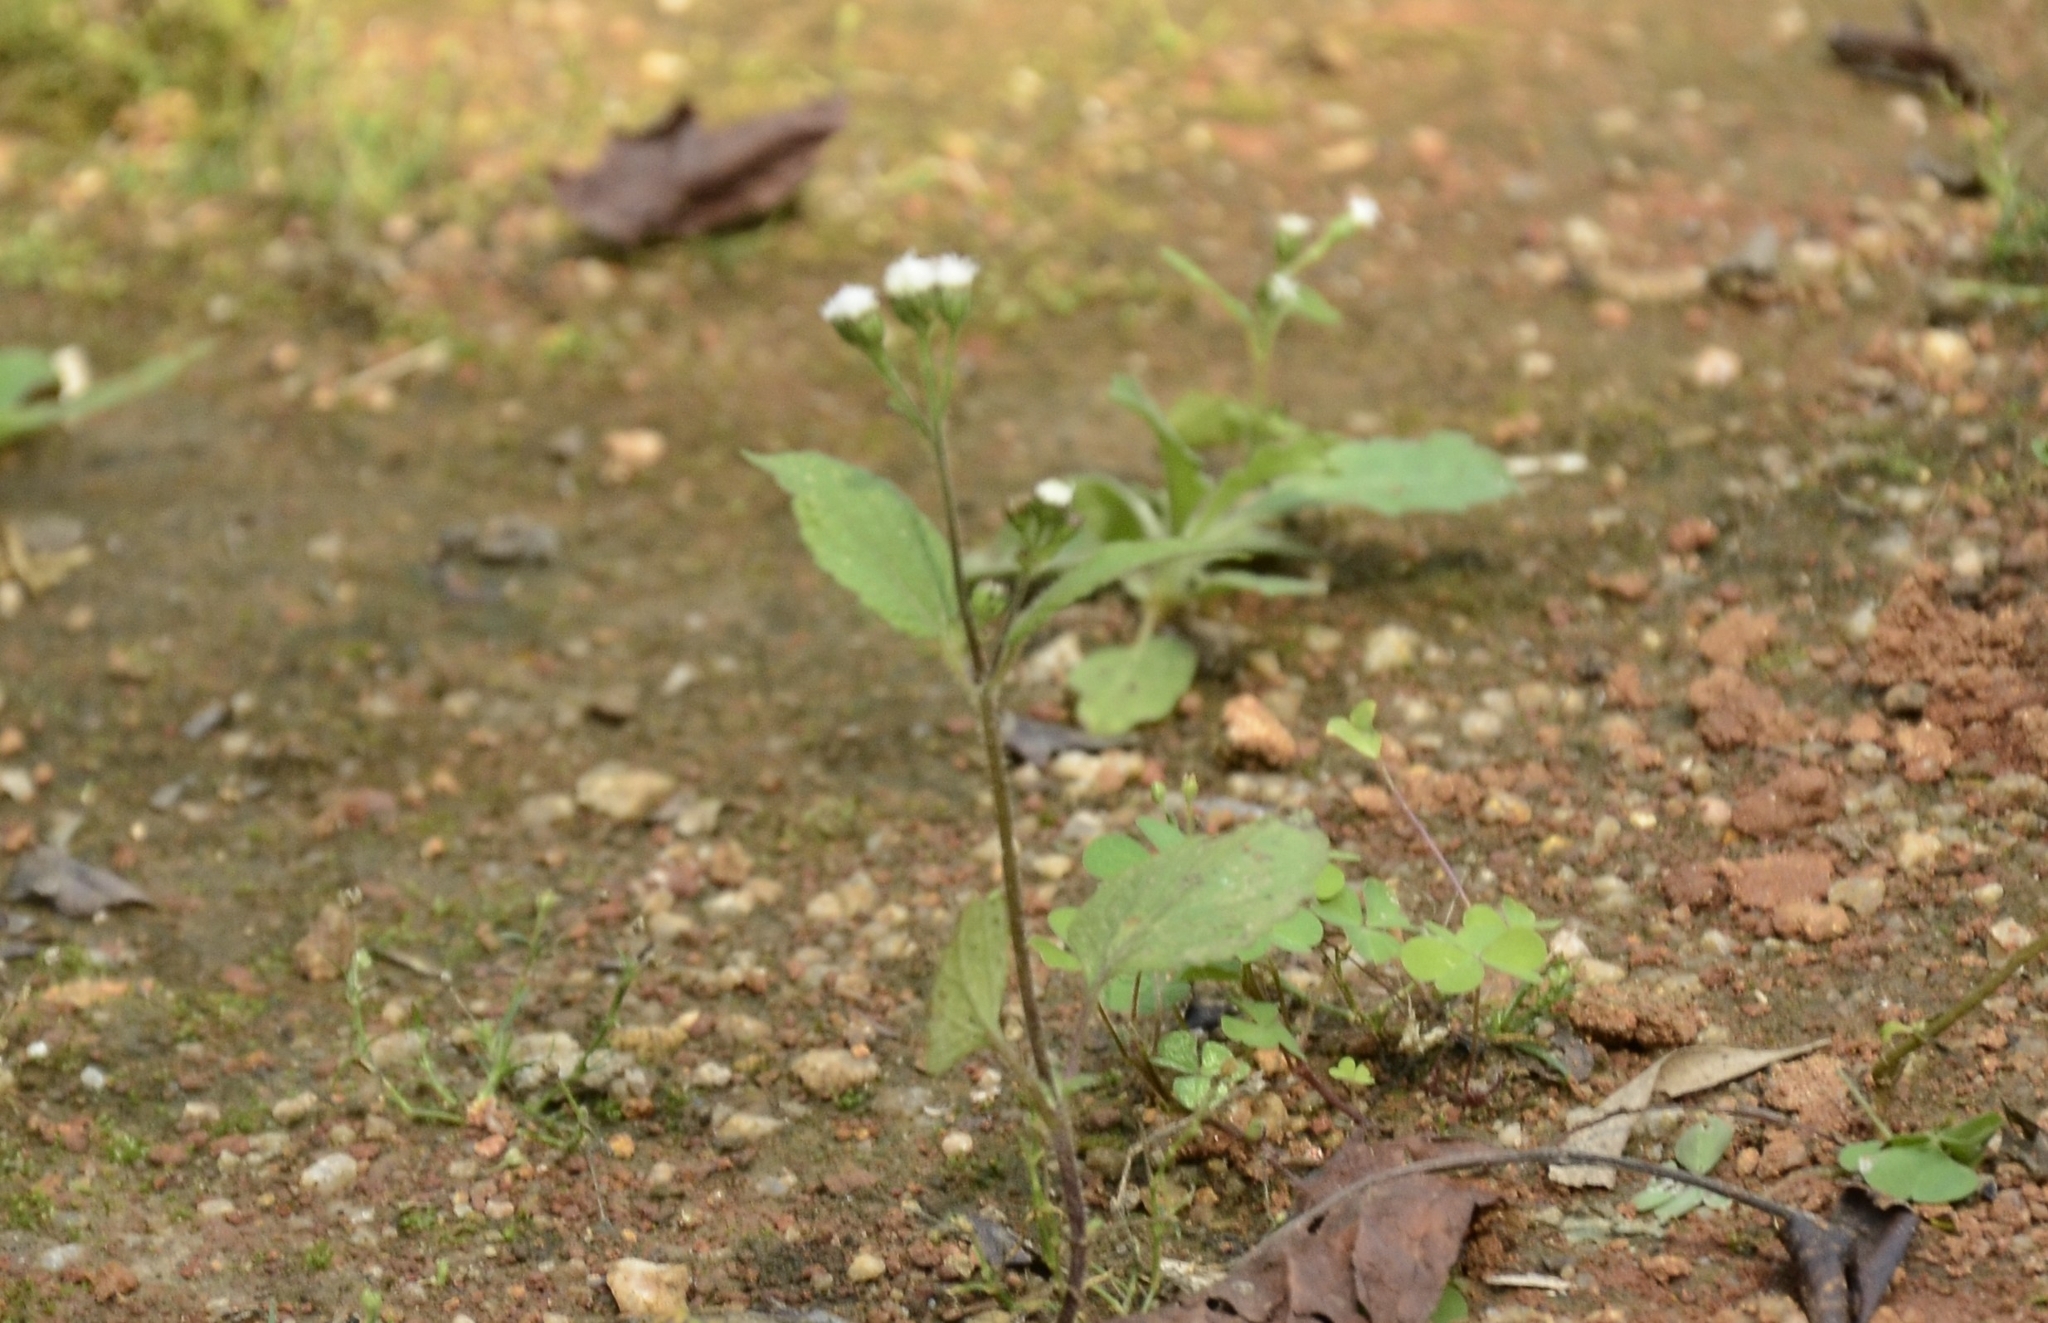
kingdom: Plantae
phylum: Tracheophyta
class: Magnoliopsida
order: Asterales
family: Asteraceae
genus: Ageratum
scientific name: Ageratum conyzoides
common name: Tropical whiteweed
